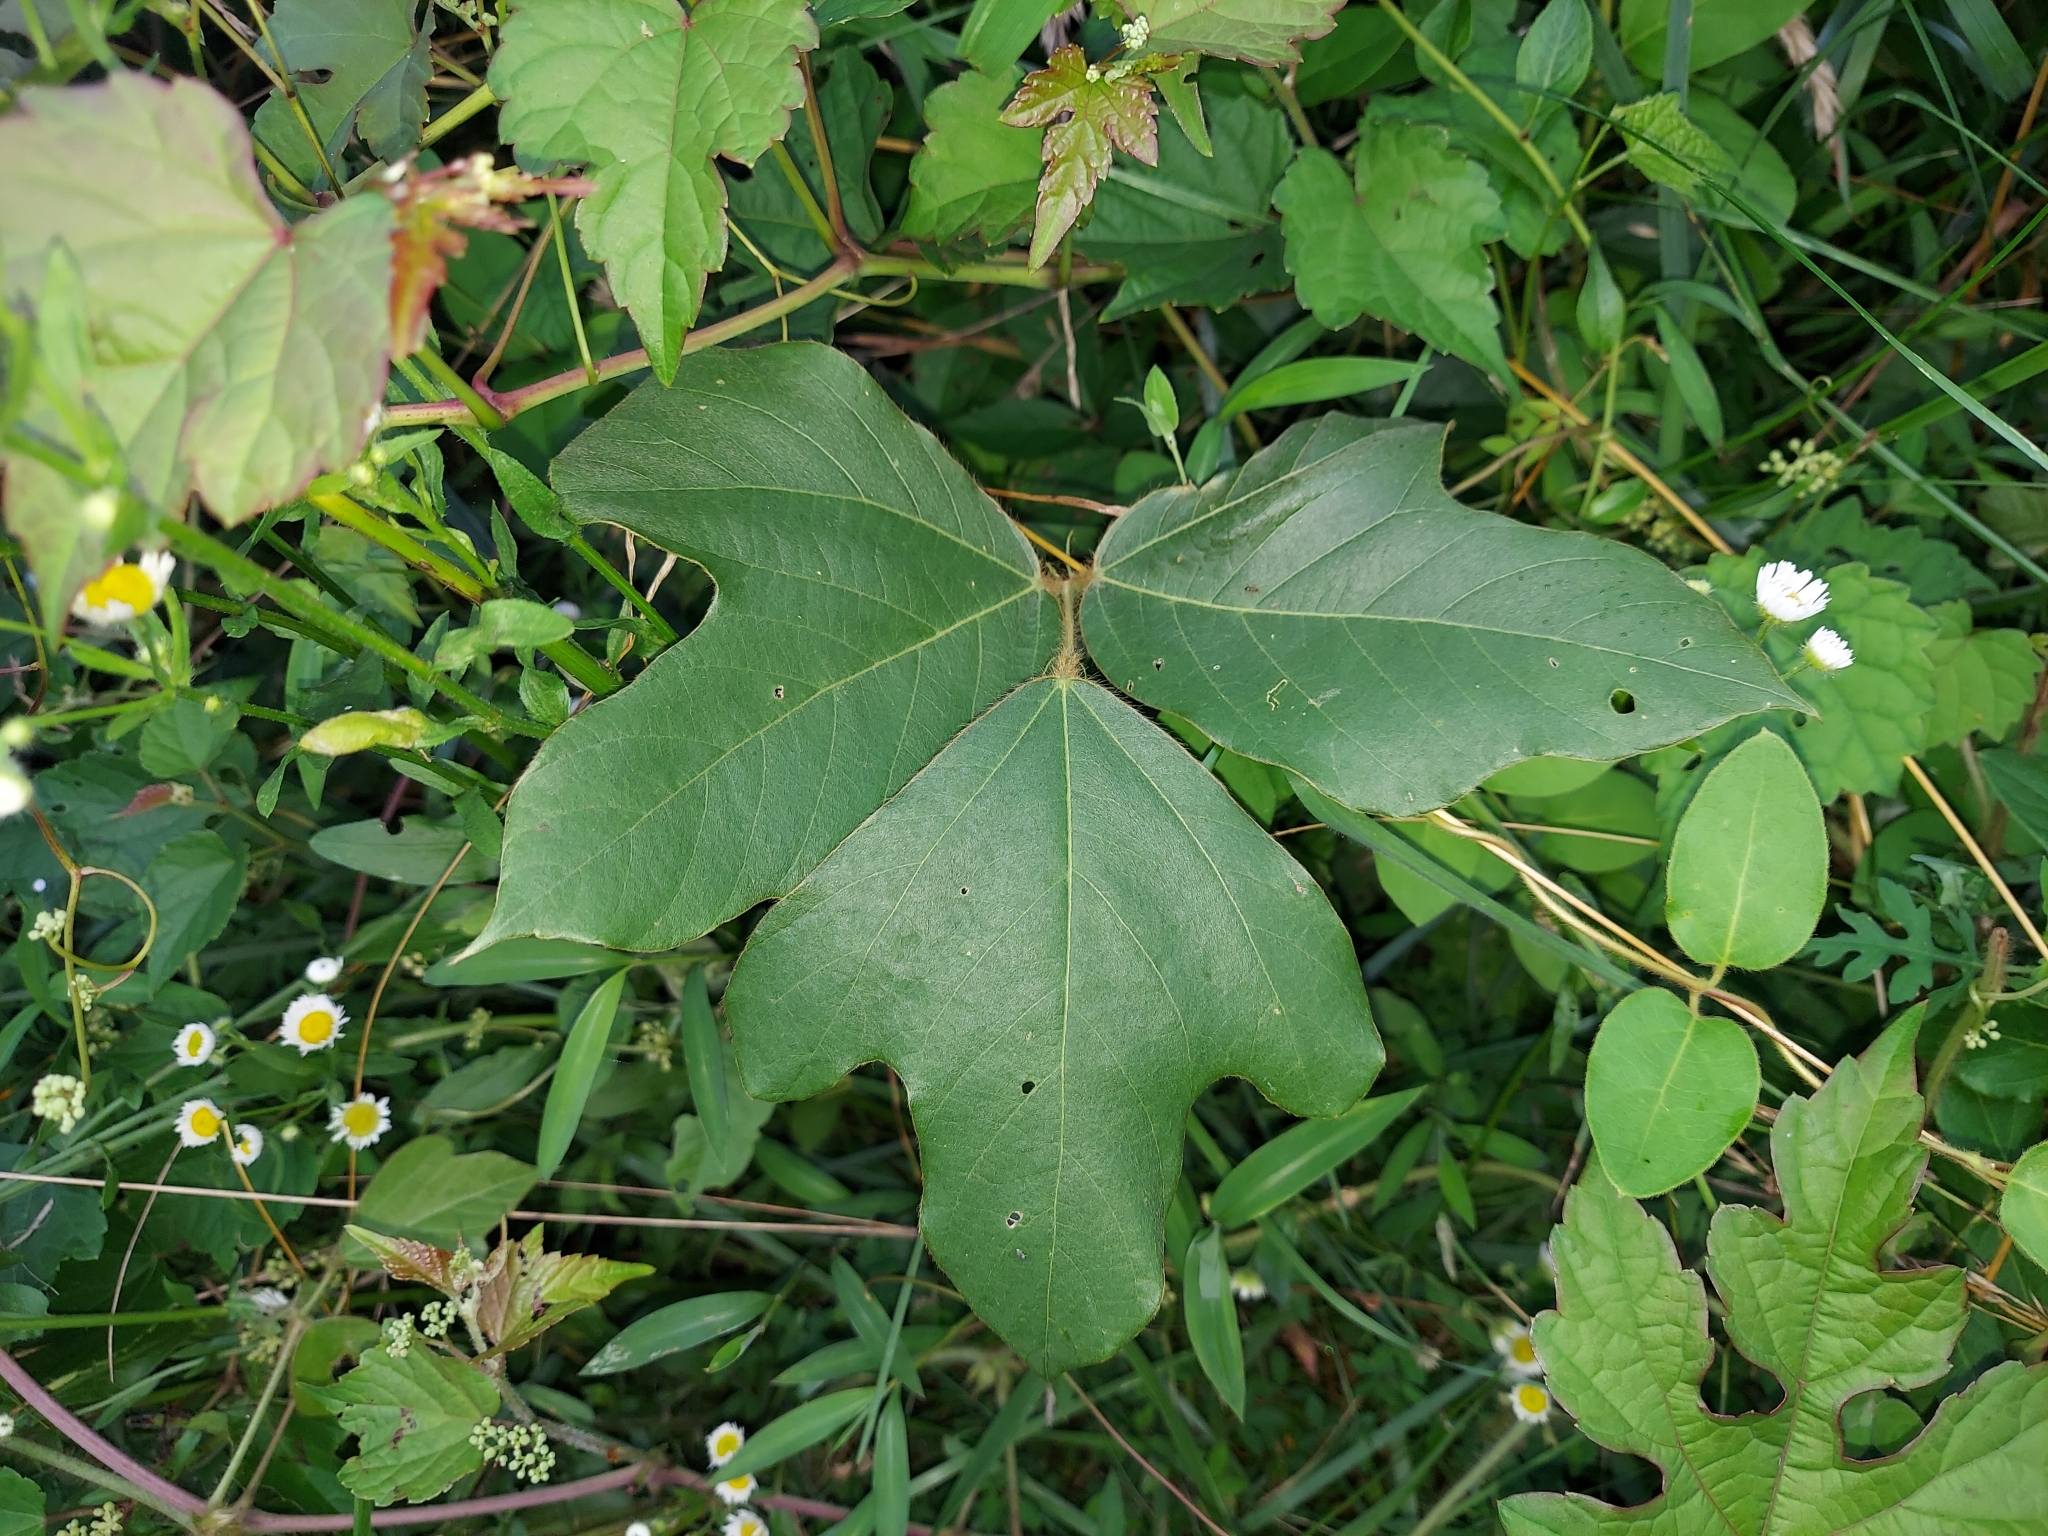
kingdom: Plantae
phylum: Tracheophyta
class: Magnoliopsida
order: Fabales
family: Fabaceae
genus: Pueraria
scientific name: Pueraria montana
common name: Kudzu
